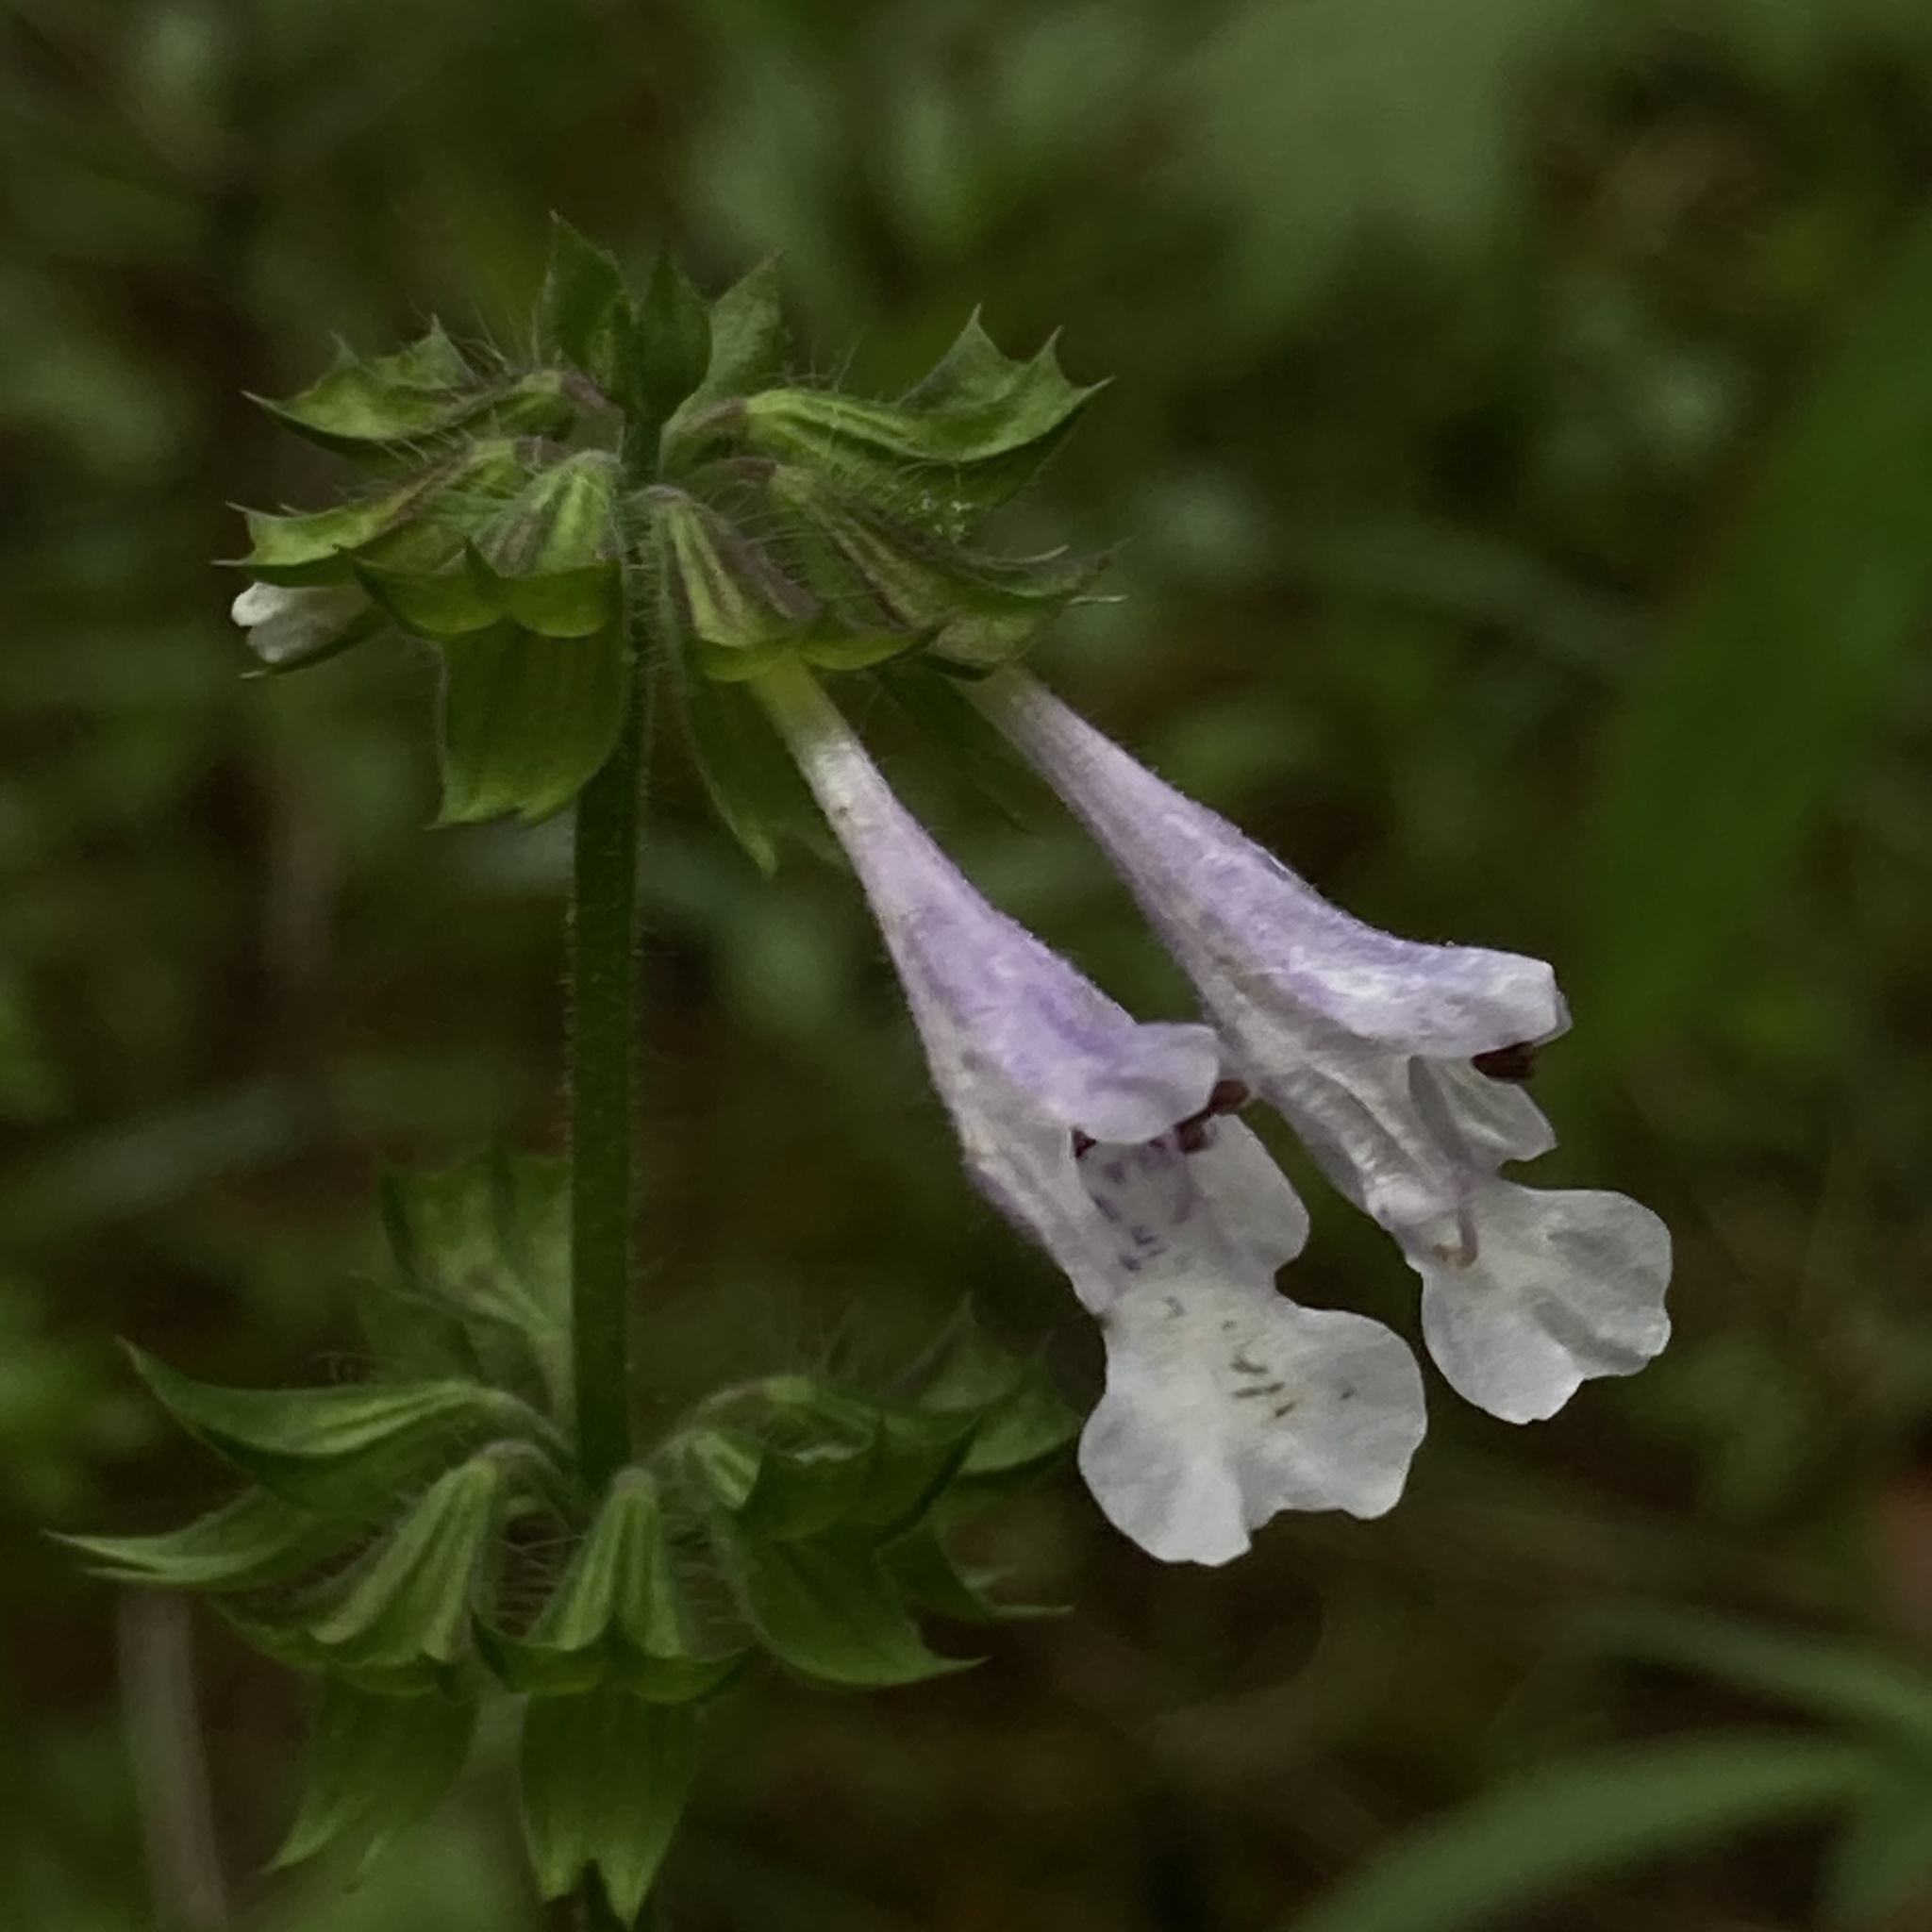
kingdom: Plantae
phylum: Tracheophyta
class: Magnoliopsida
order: Lamiales
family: Lamiaceae
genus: Salvia
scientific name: Salvia lyrata
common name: Cancerweed
